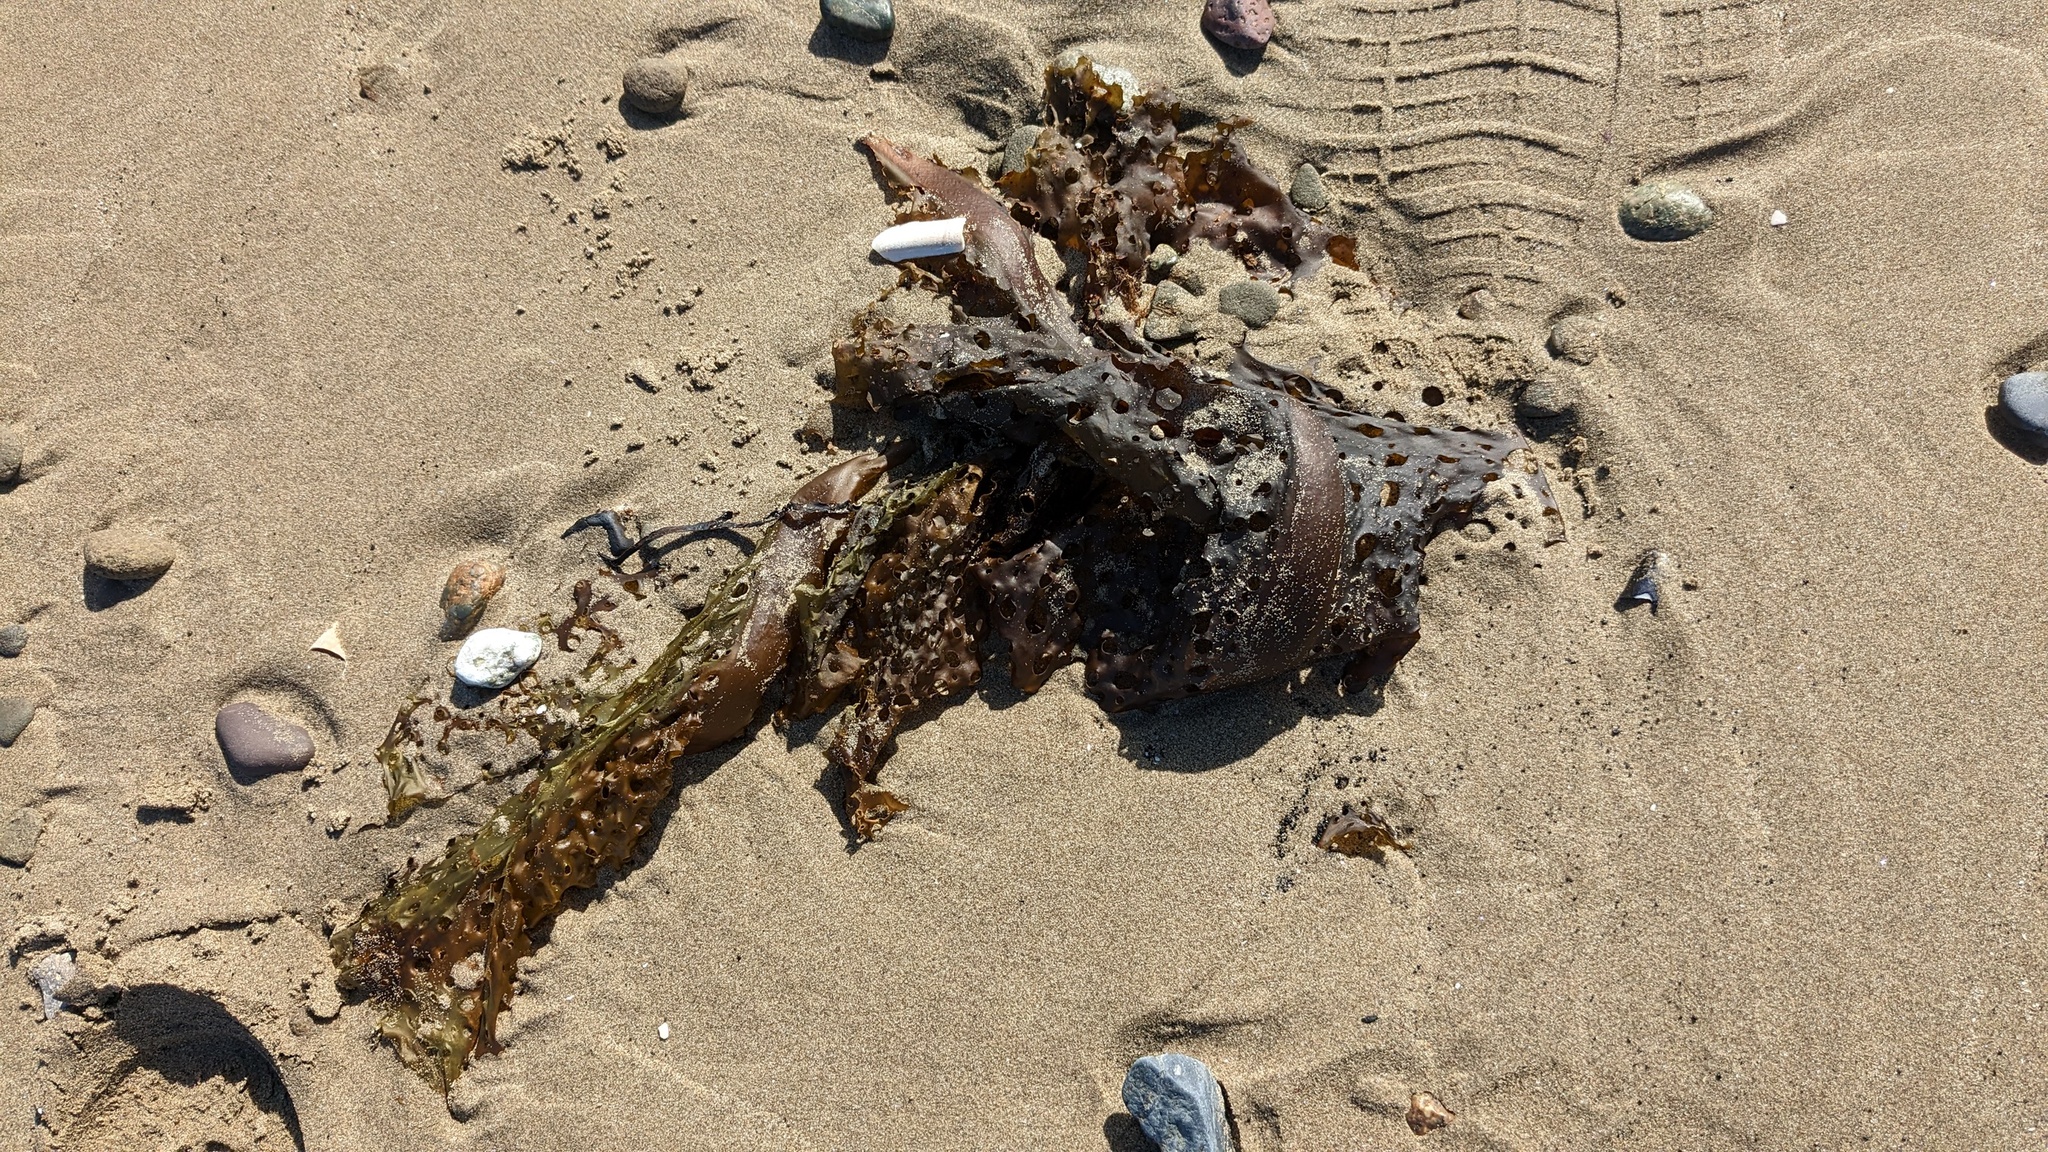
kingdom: Chromista
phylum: Ochrophyta
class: Phaeophyceae
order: Laminariales
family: Costariaceae
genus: Agarum
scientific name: Agarum clathratum
